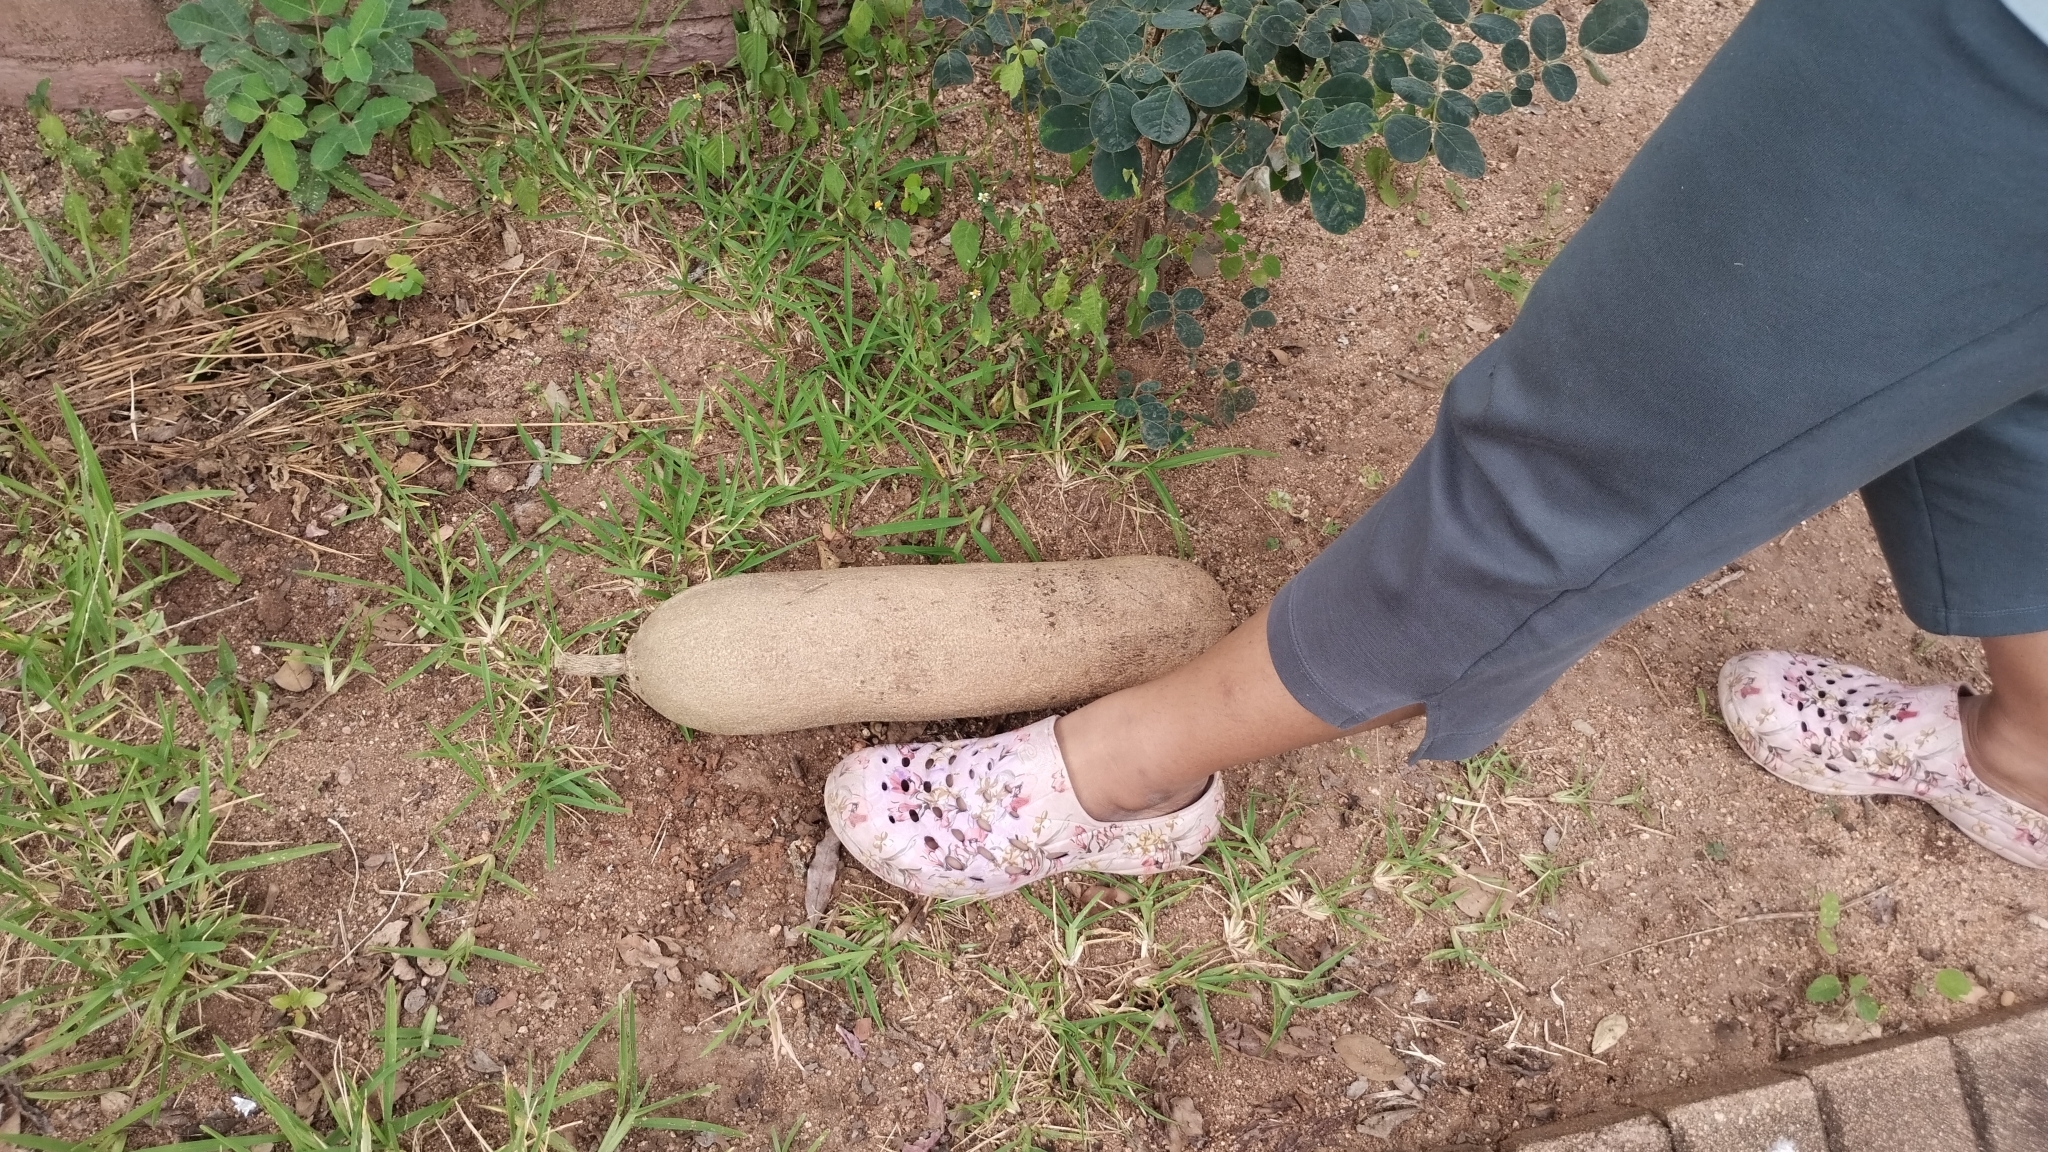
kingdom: Plantae
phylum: Tracheophyta
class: Magnoliopsida
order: Lamiales
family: Bignoniaceae
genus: Kigelia
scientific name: Kigelia africana
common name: Sausage tree
